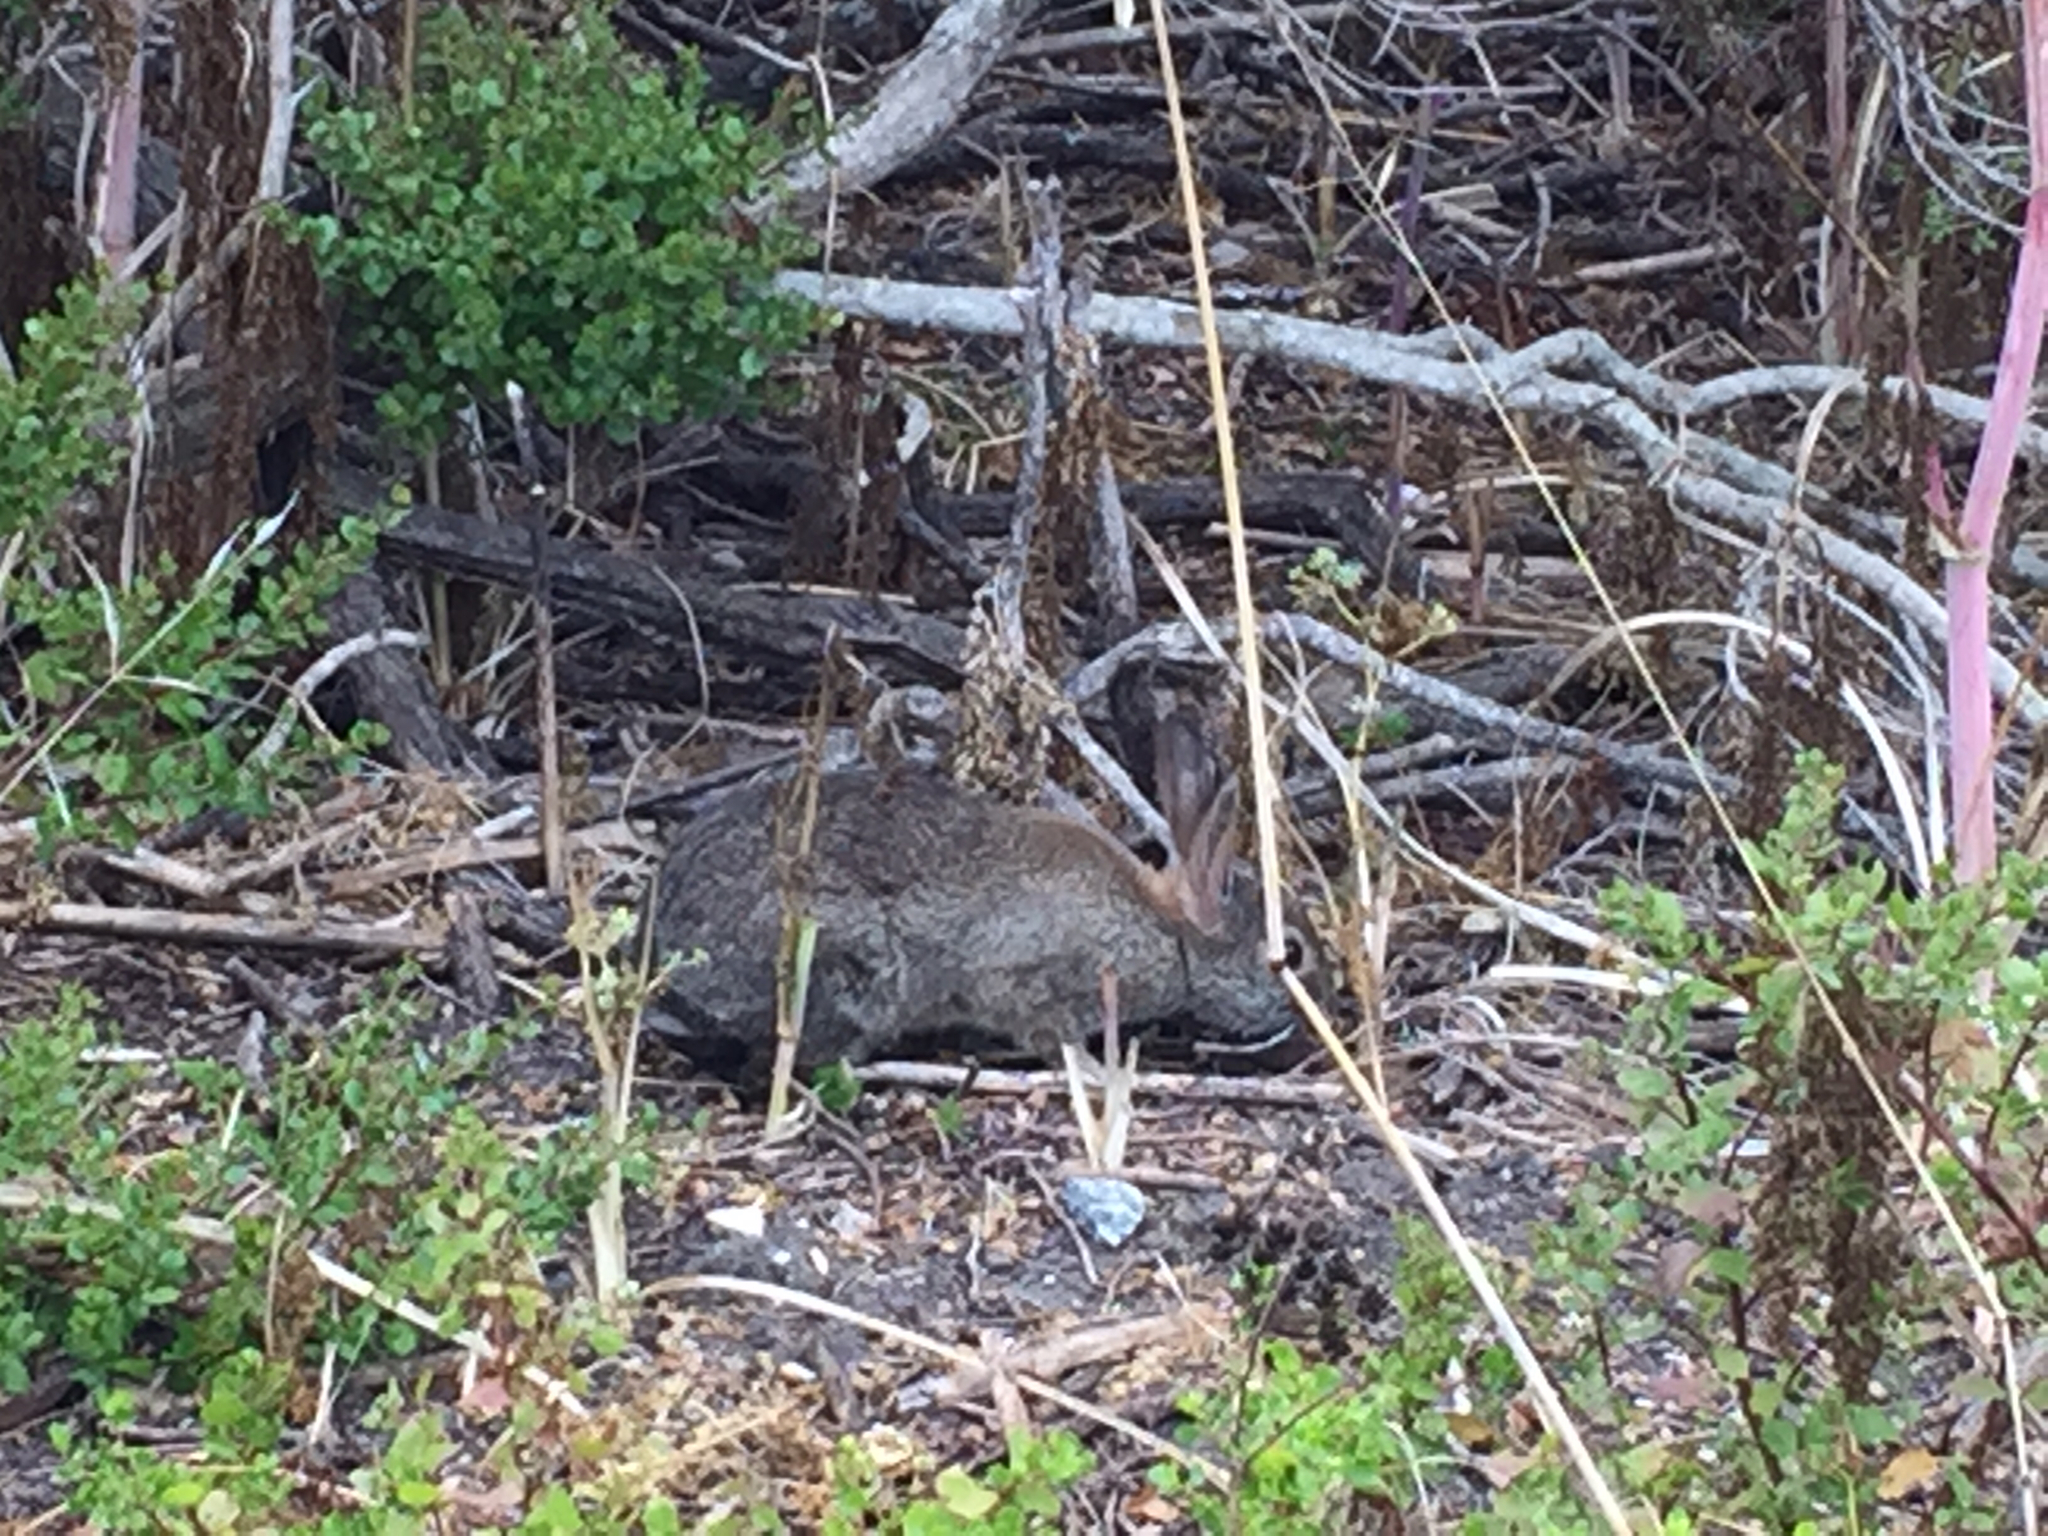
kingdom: Animalia
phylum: Chordata
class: Mammalia
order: Lagomorpha
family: Leporidae
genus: Sylvilagus
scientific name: Sylvilagus bachmani
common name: Brush rabbit
